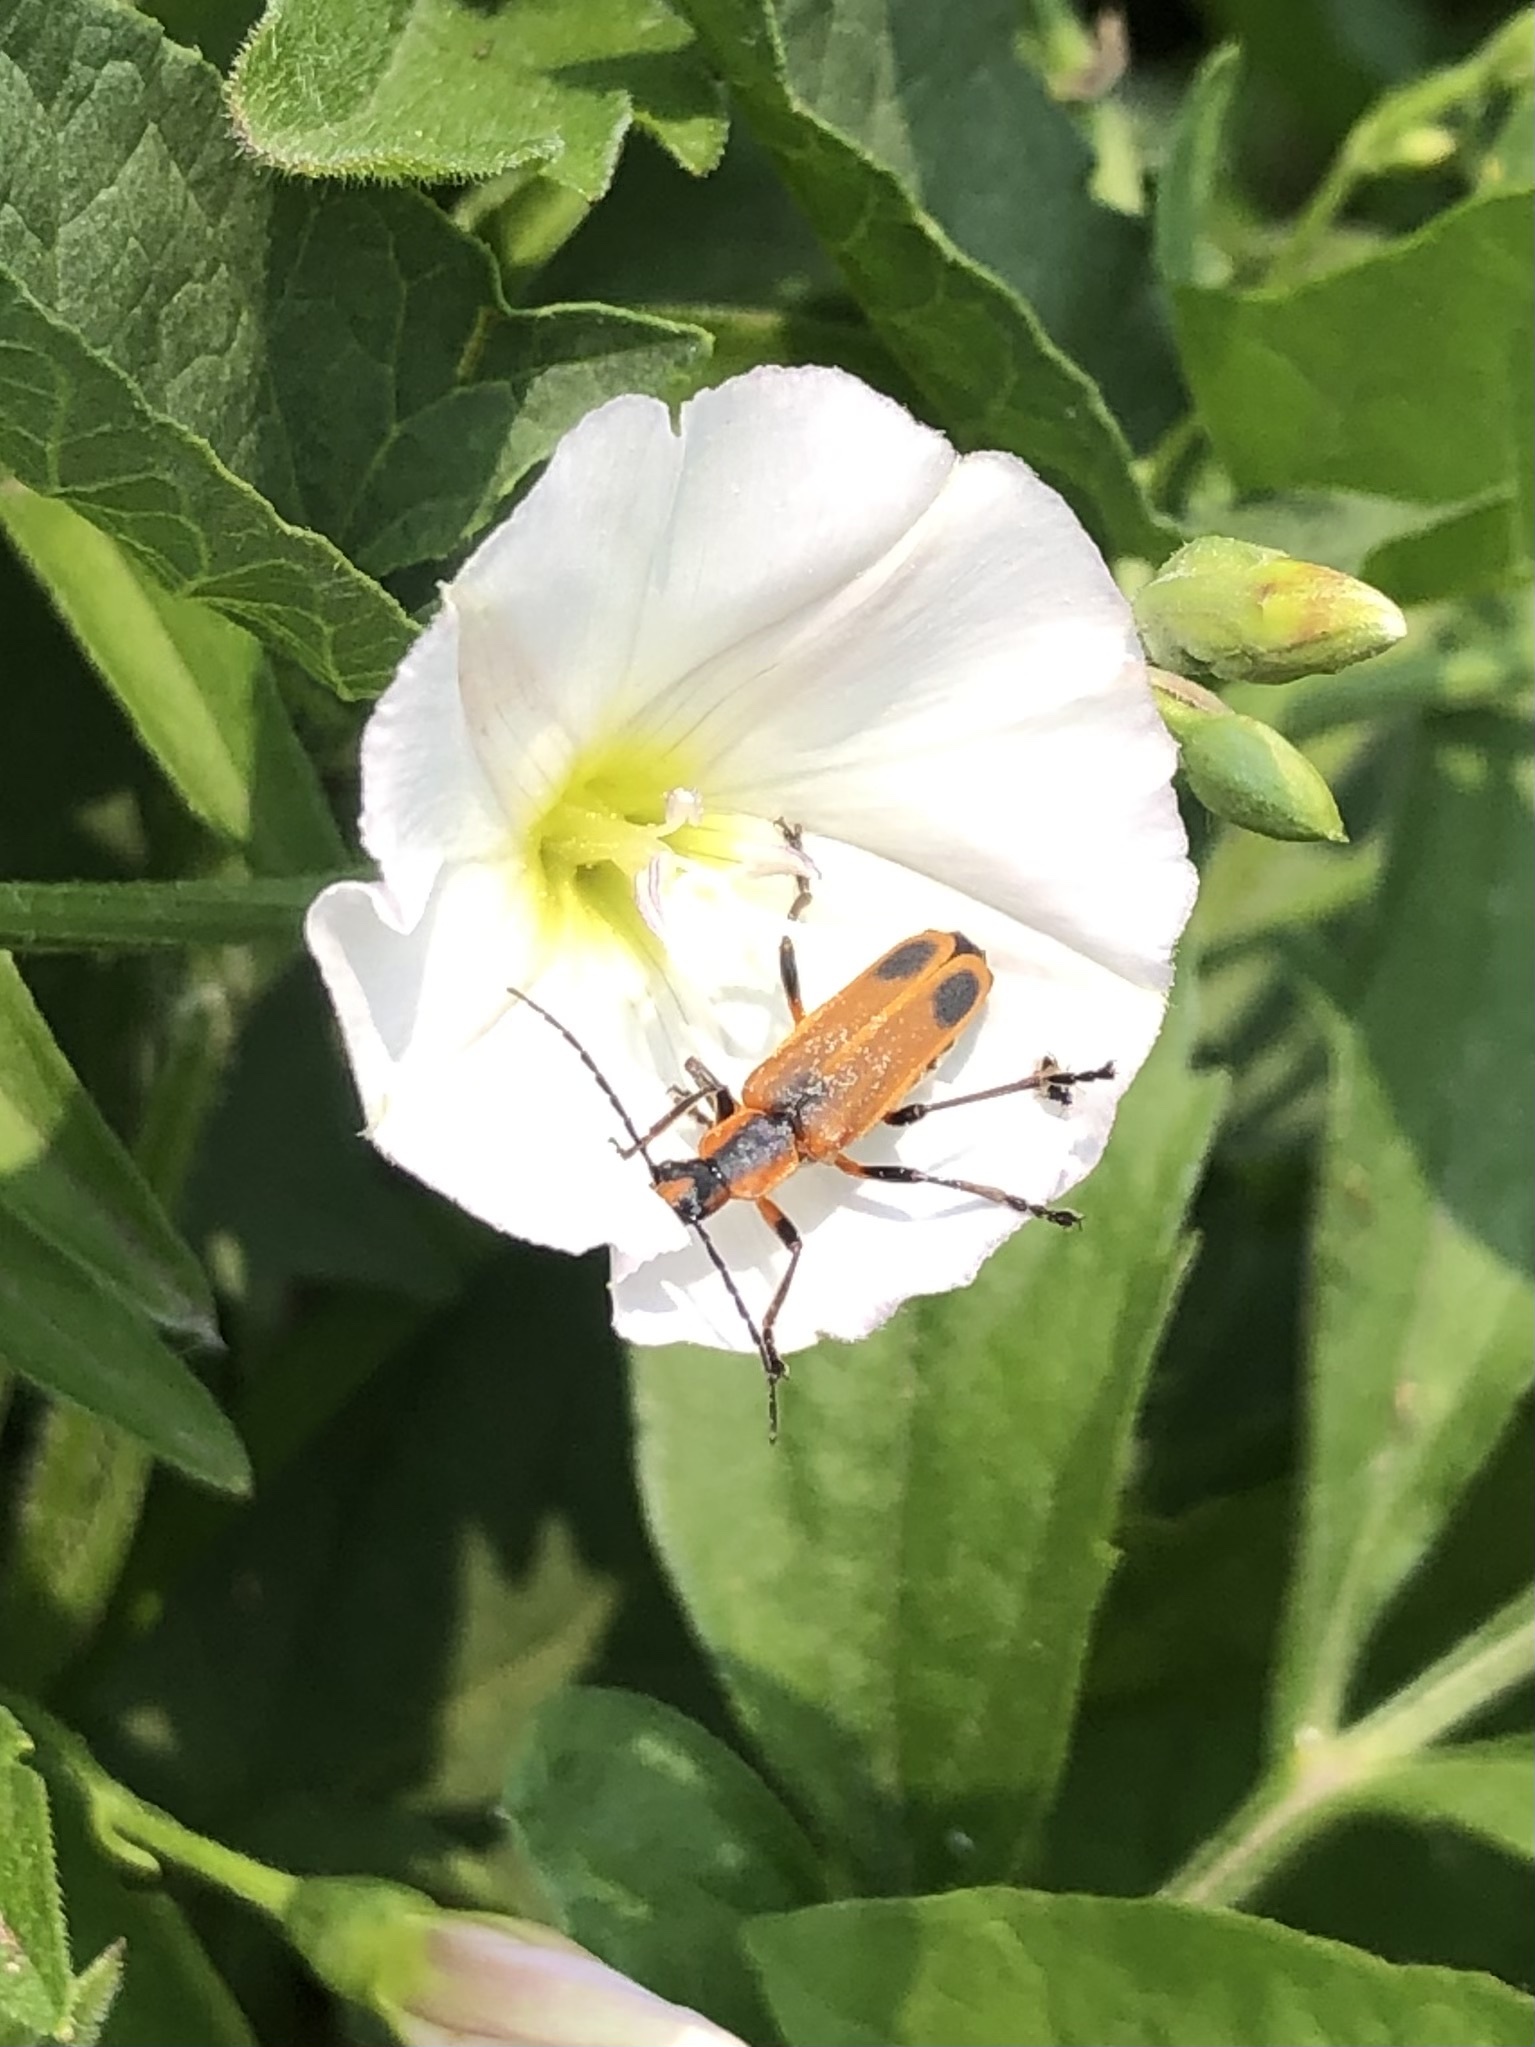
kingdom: Animalia
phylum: Arthropoda
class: Insecta
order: Coleoptera
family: Cantharidae
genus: Chauliognathus
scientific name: Chauliognathus marginatus
